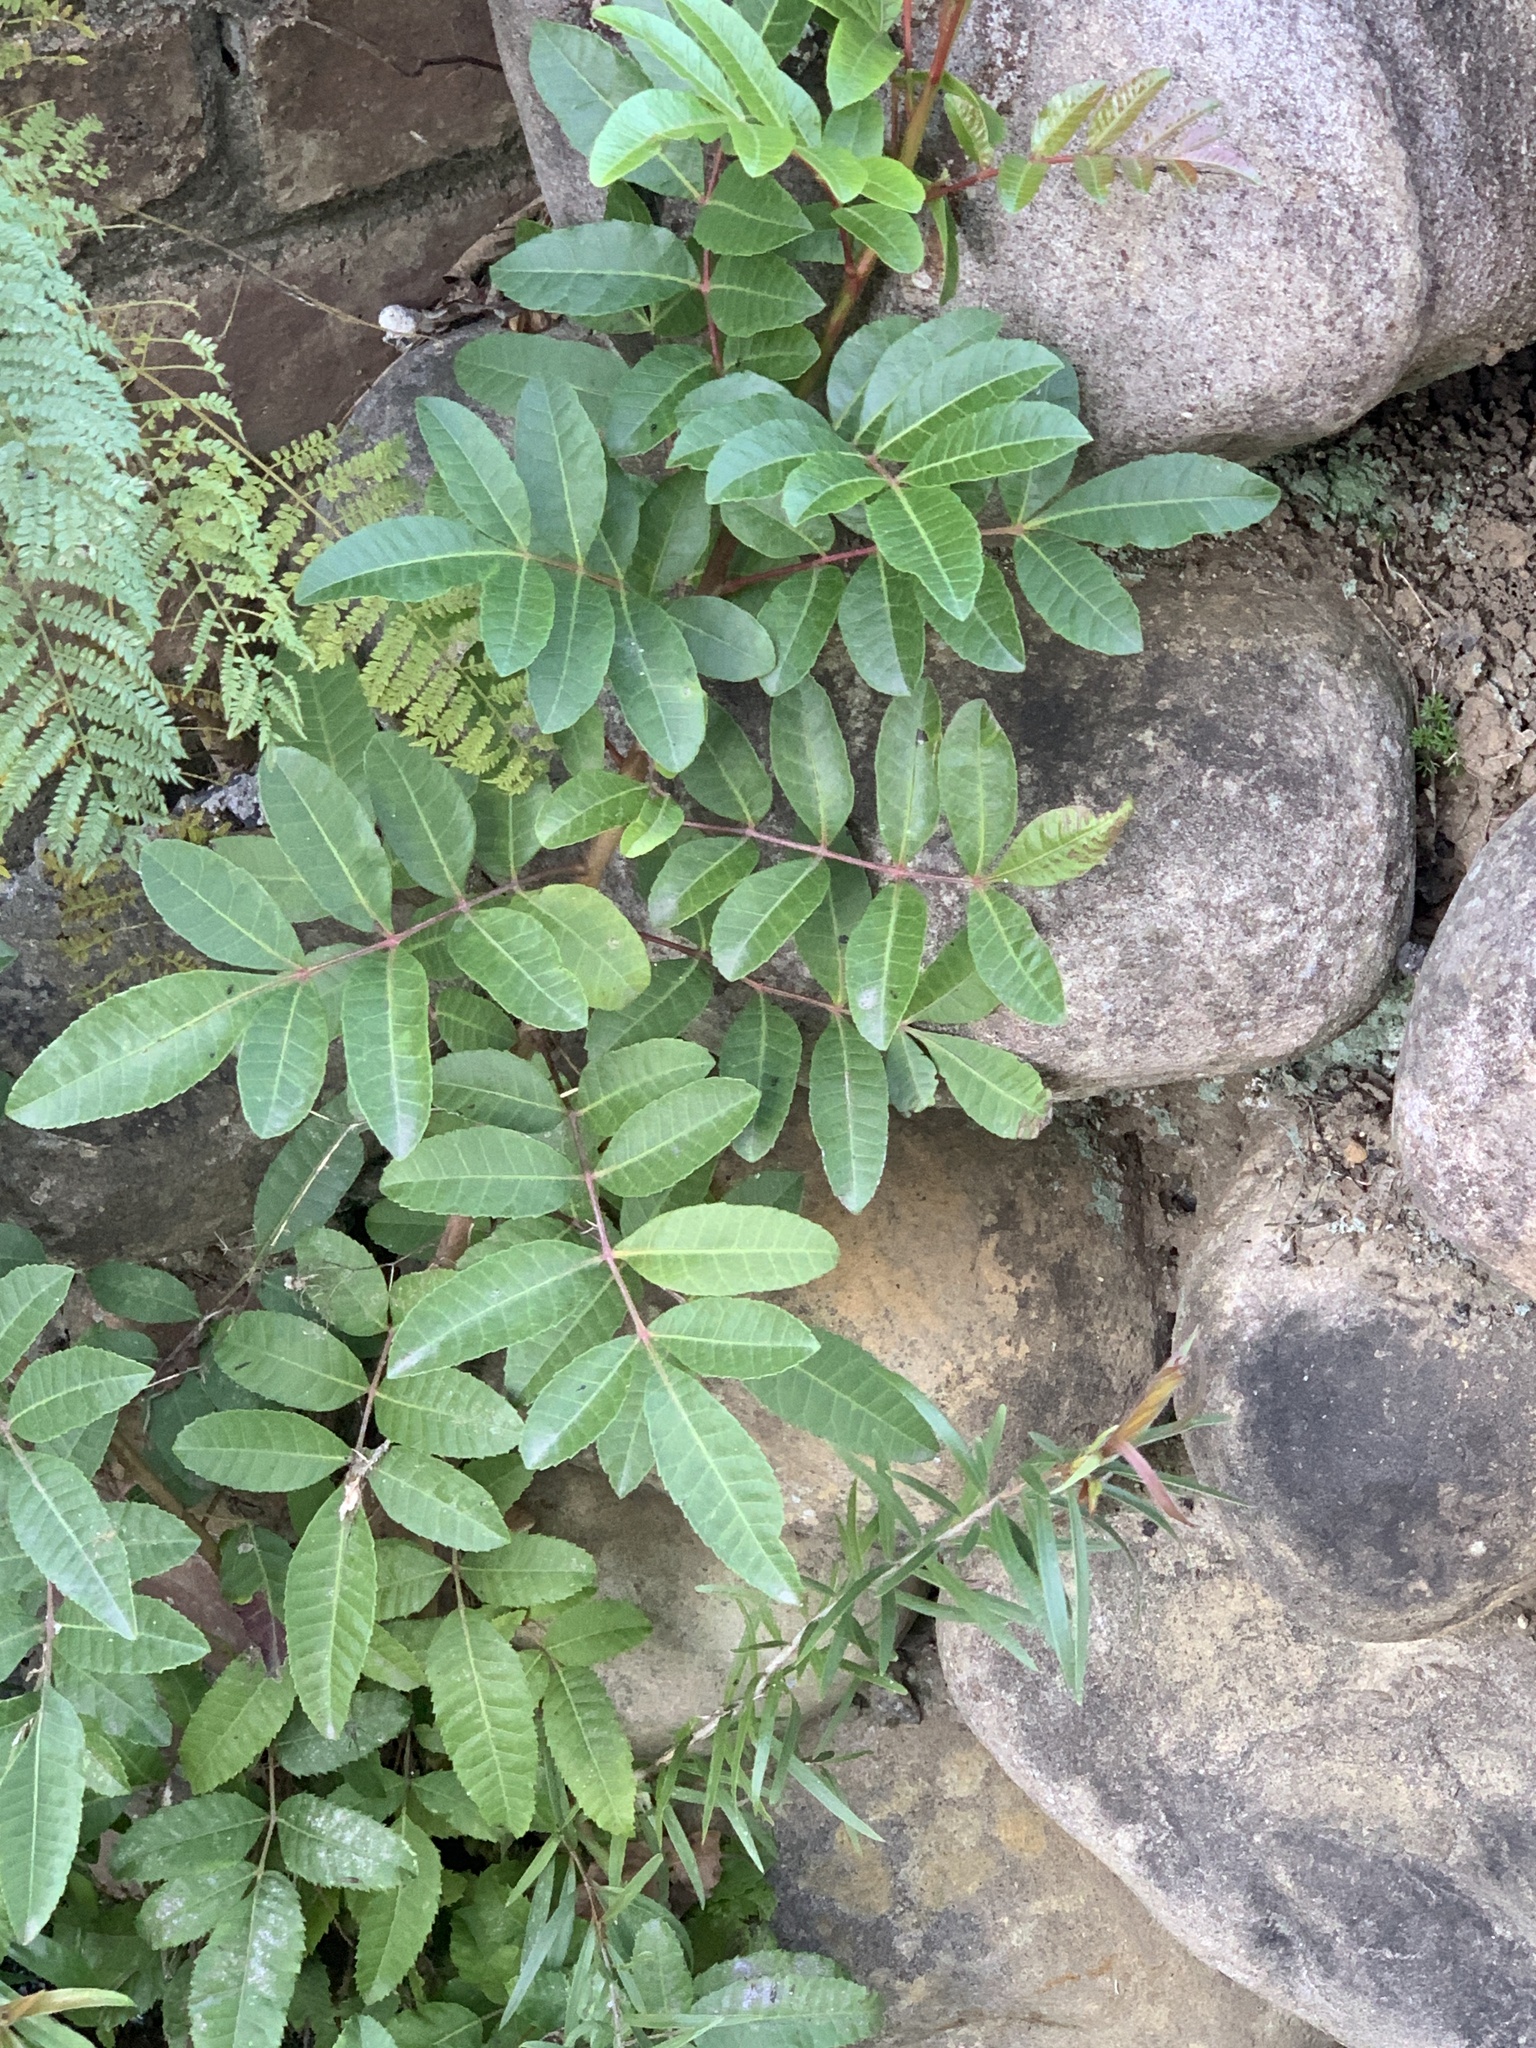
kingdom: Plantae
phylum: Tracheophyta
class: Magnoliopsida
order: Sapindales
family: Anacardiaceae
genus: Schinus
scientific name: Schinus terebinthifolia
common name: Brazilian peppertree
